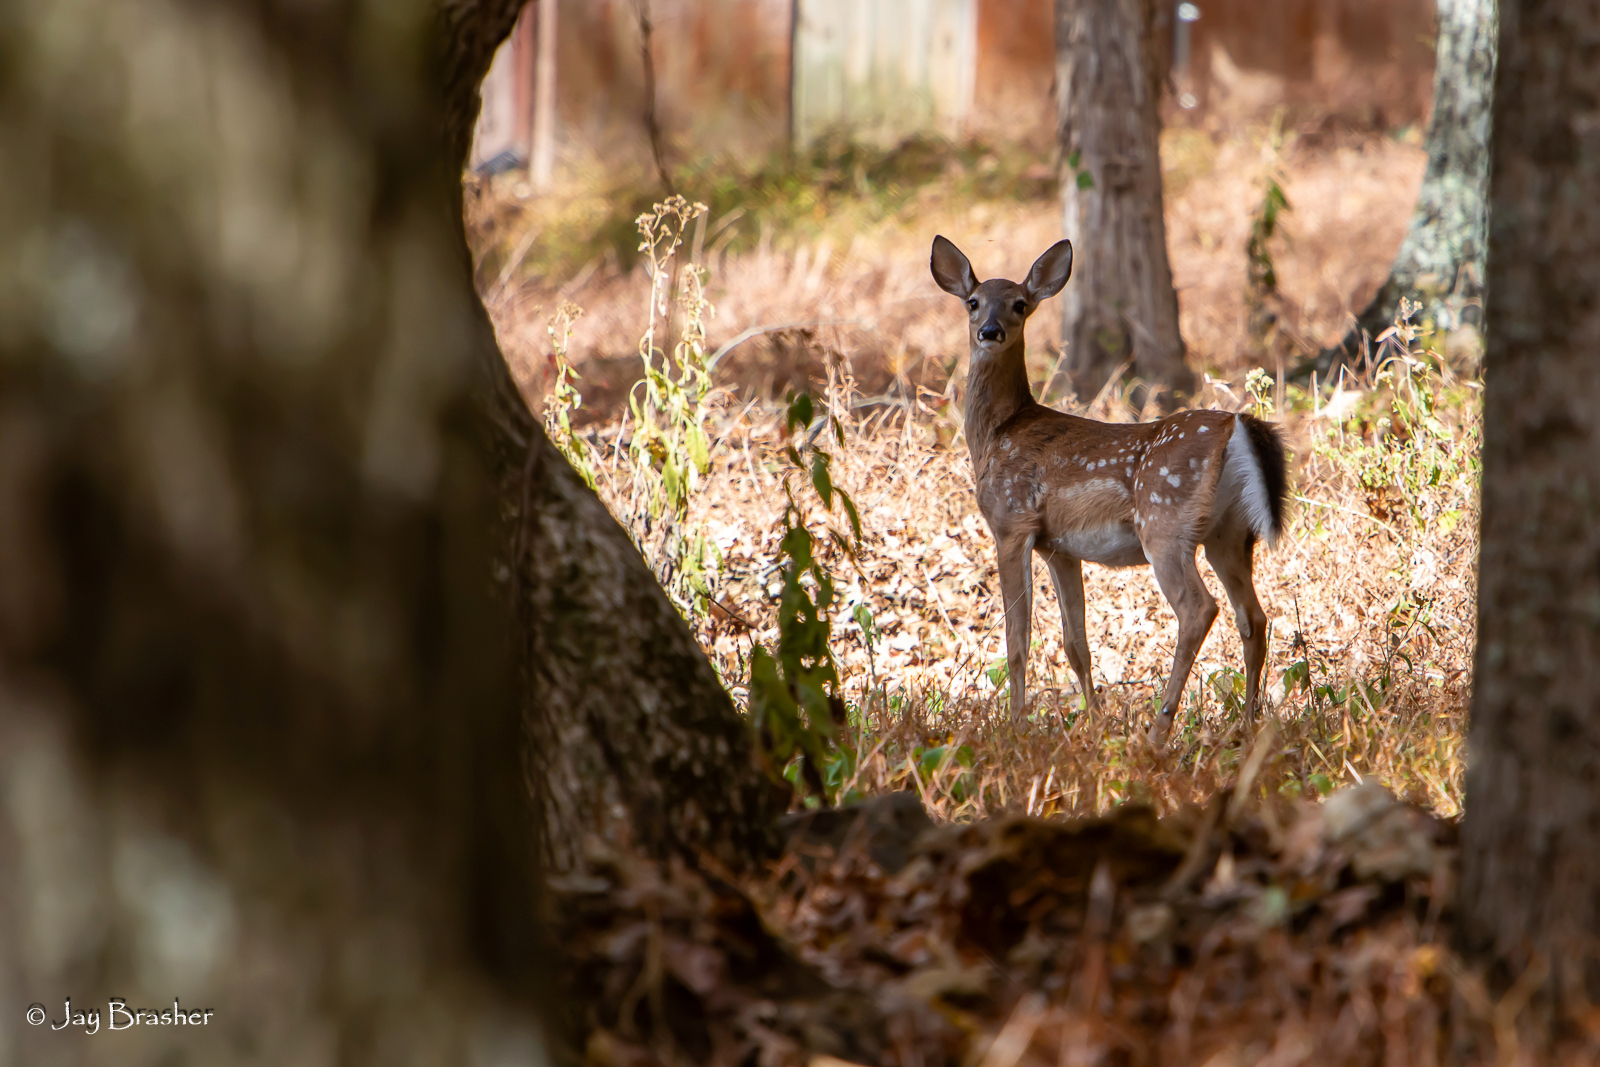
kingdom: Animalia
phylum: Chordata
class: Mammalia
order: Artiodactyla
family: Cervidae
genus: Odocoileus
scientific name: Odocoileus virginianus
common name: White-tailed deer
